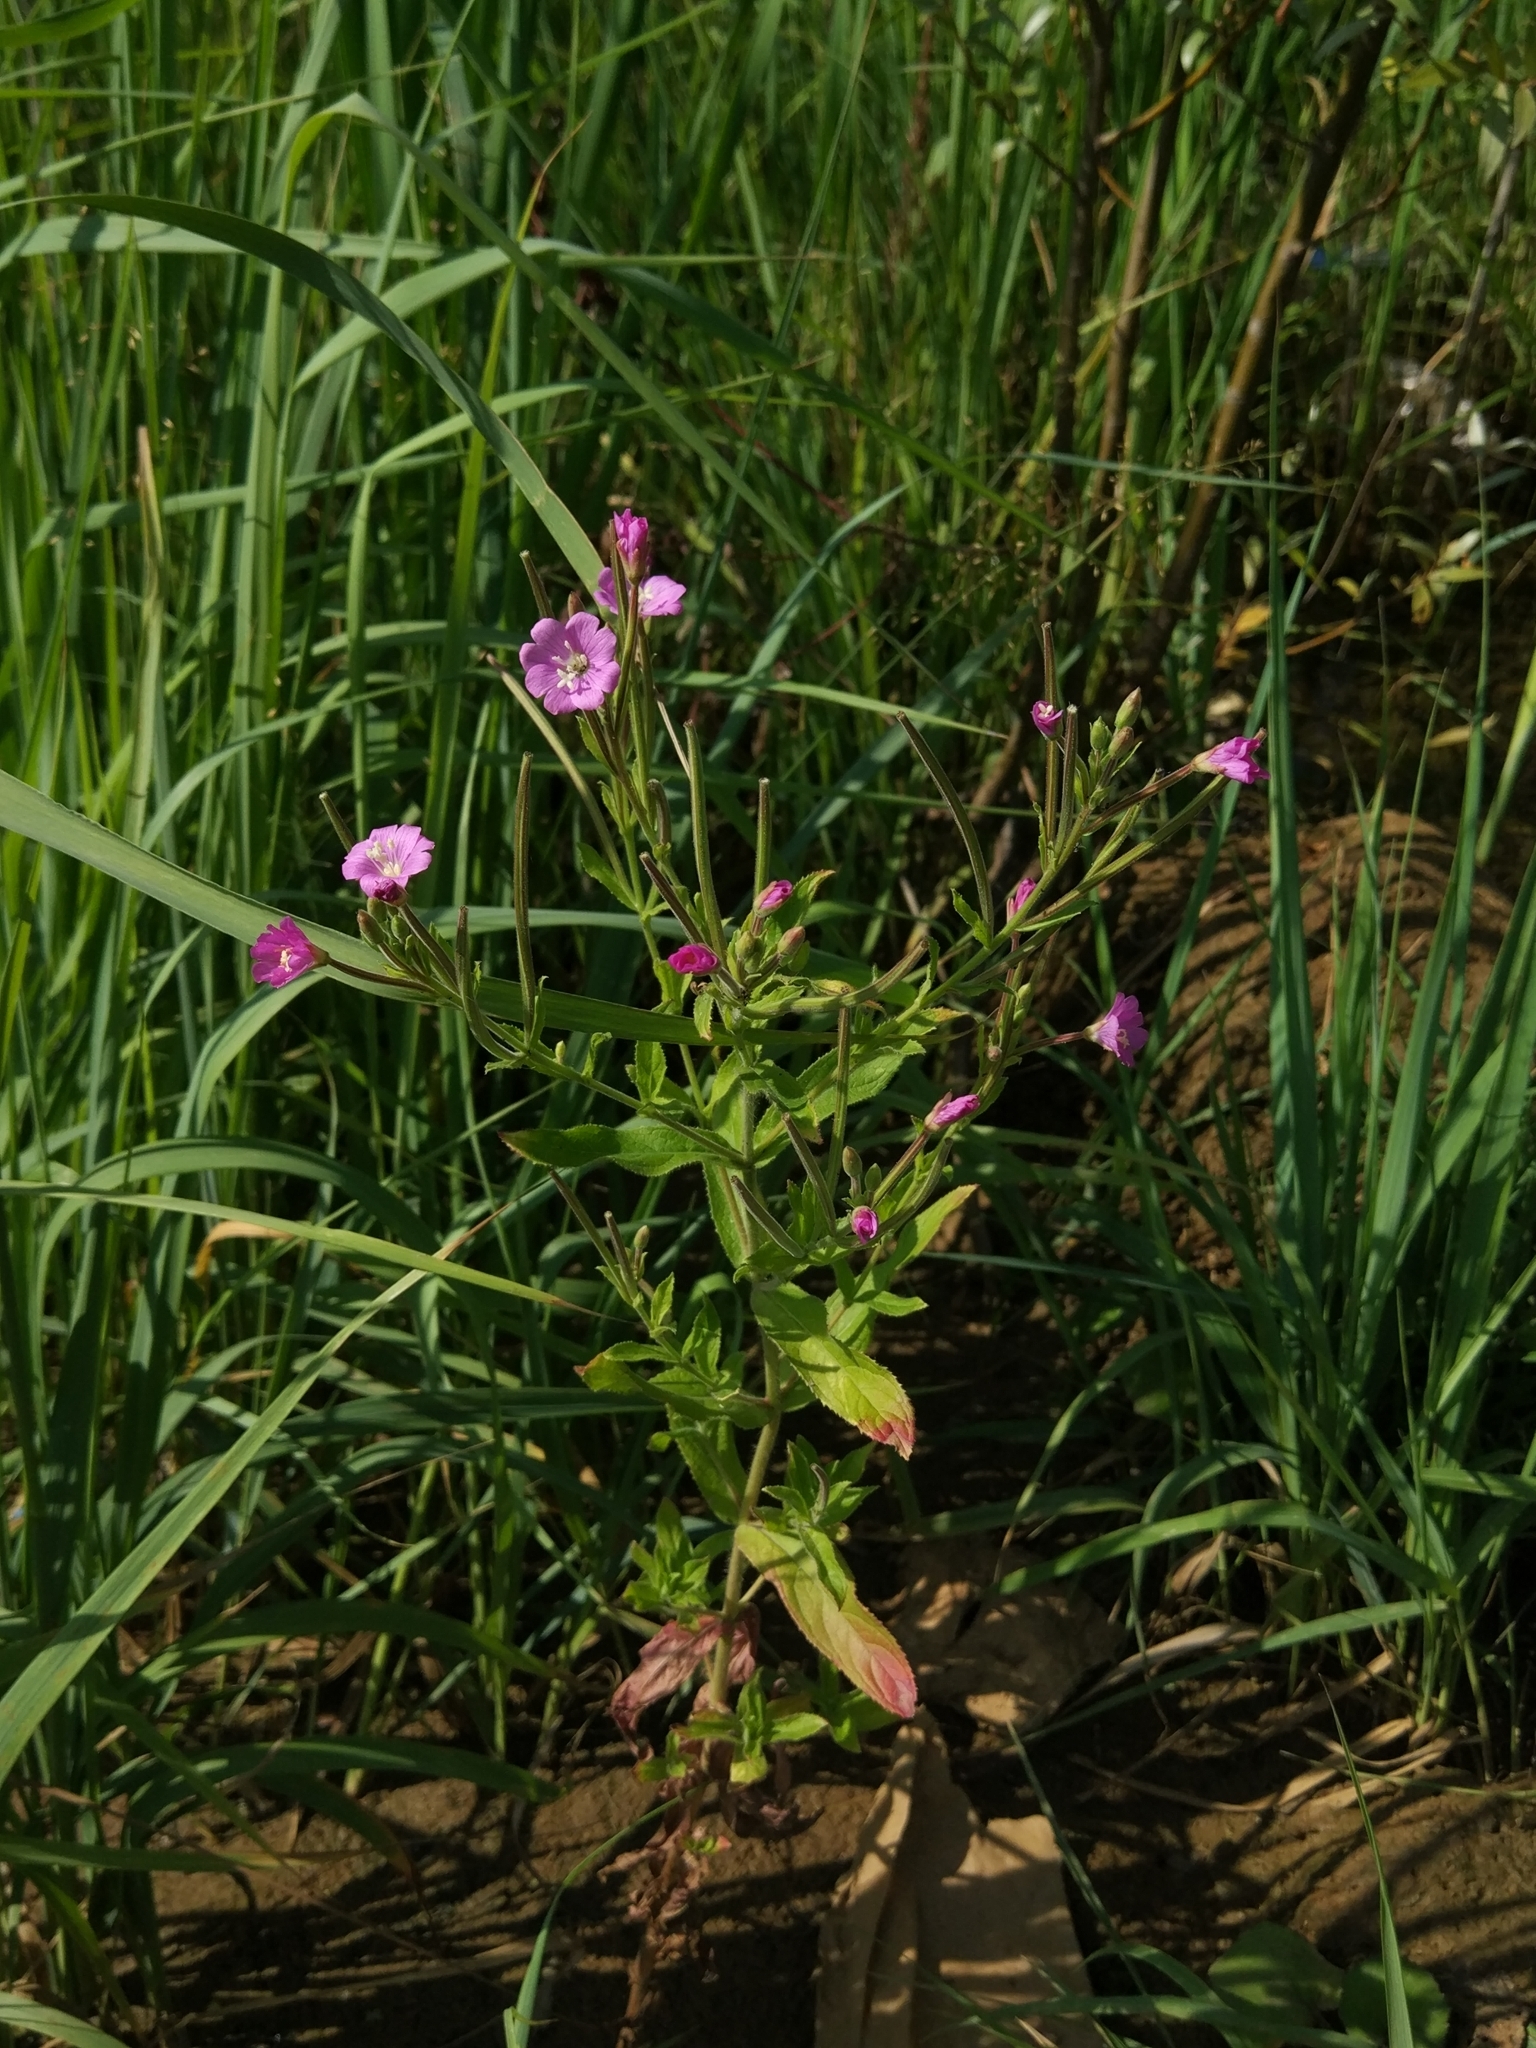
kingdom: Plantae
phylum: Tracheophyta
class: Magnoliopsida
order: Myrtales
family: Onagraceae
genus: Epilobium
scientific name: Epilobium hirsutum
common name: Great willowherb
